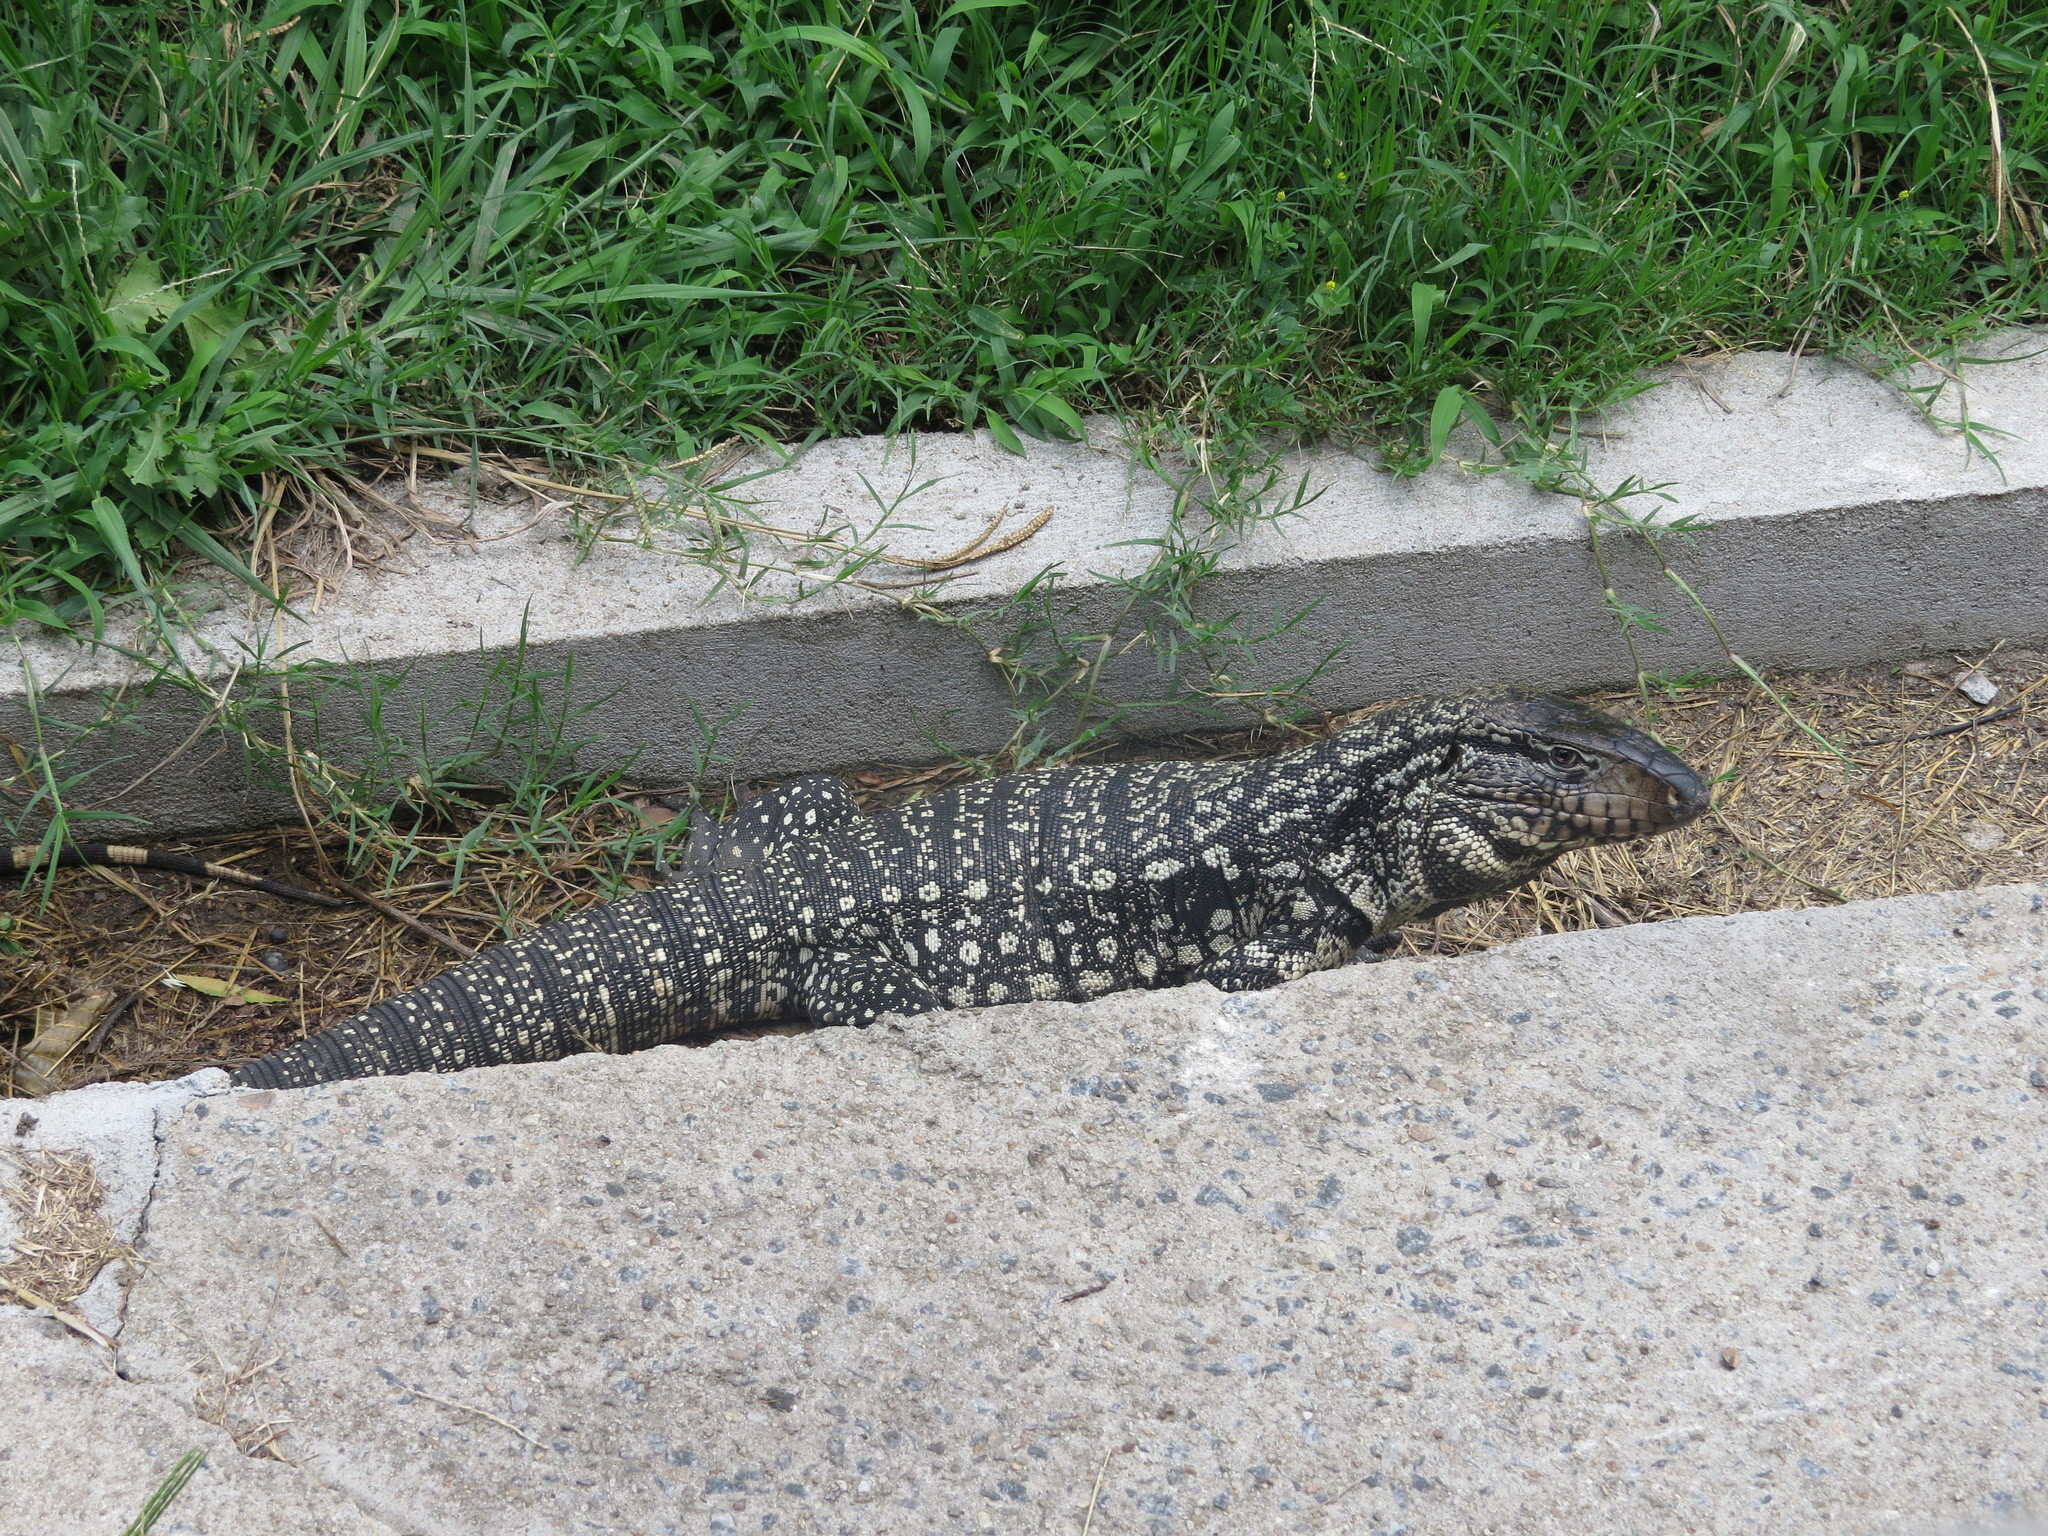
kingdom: Animalia
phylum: Chordata
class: Squamata
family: Teiidae
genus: Salvator
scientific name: Salvator merianae
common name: Argentine black and white tegu
